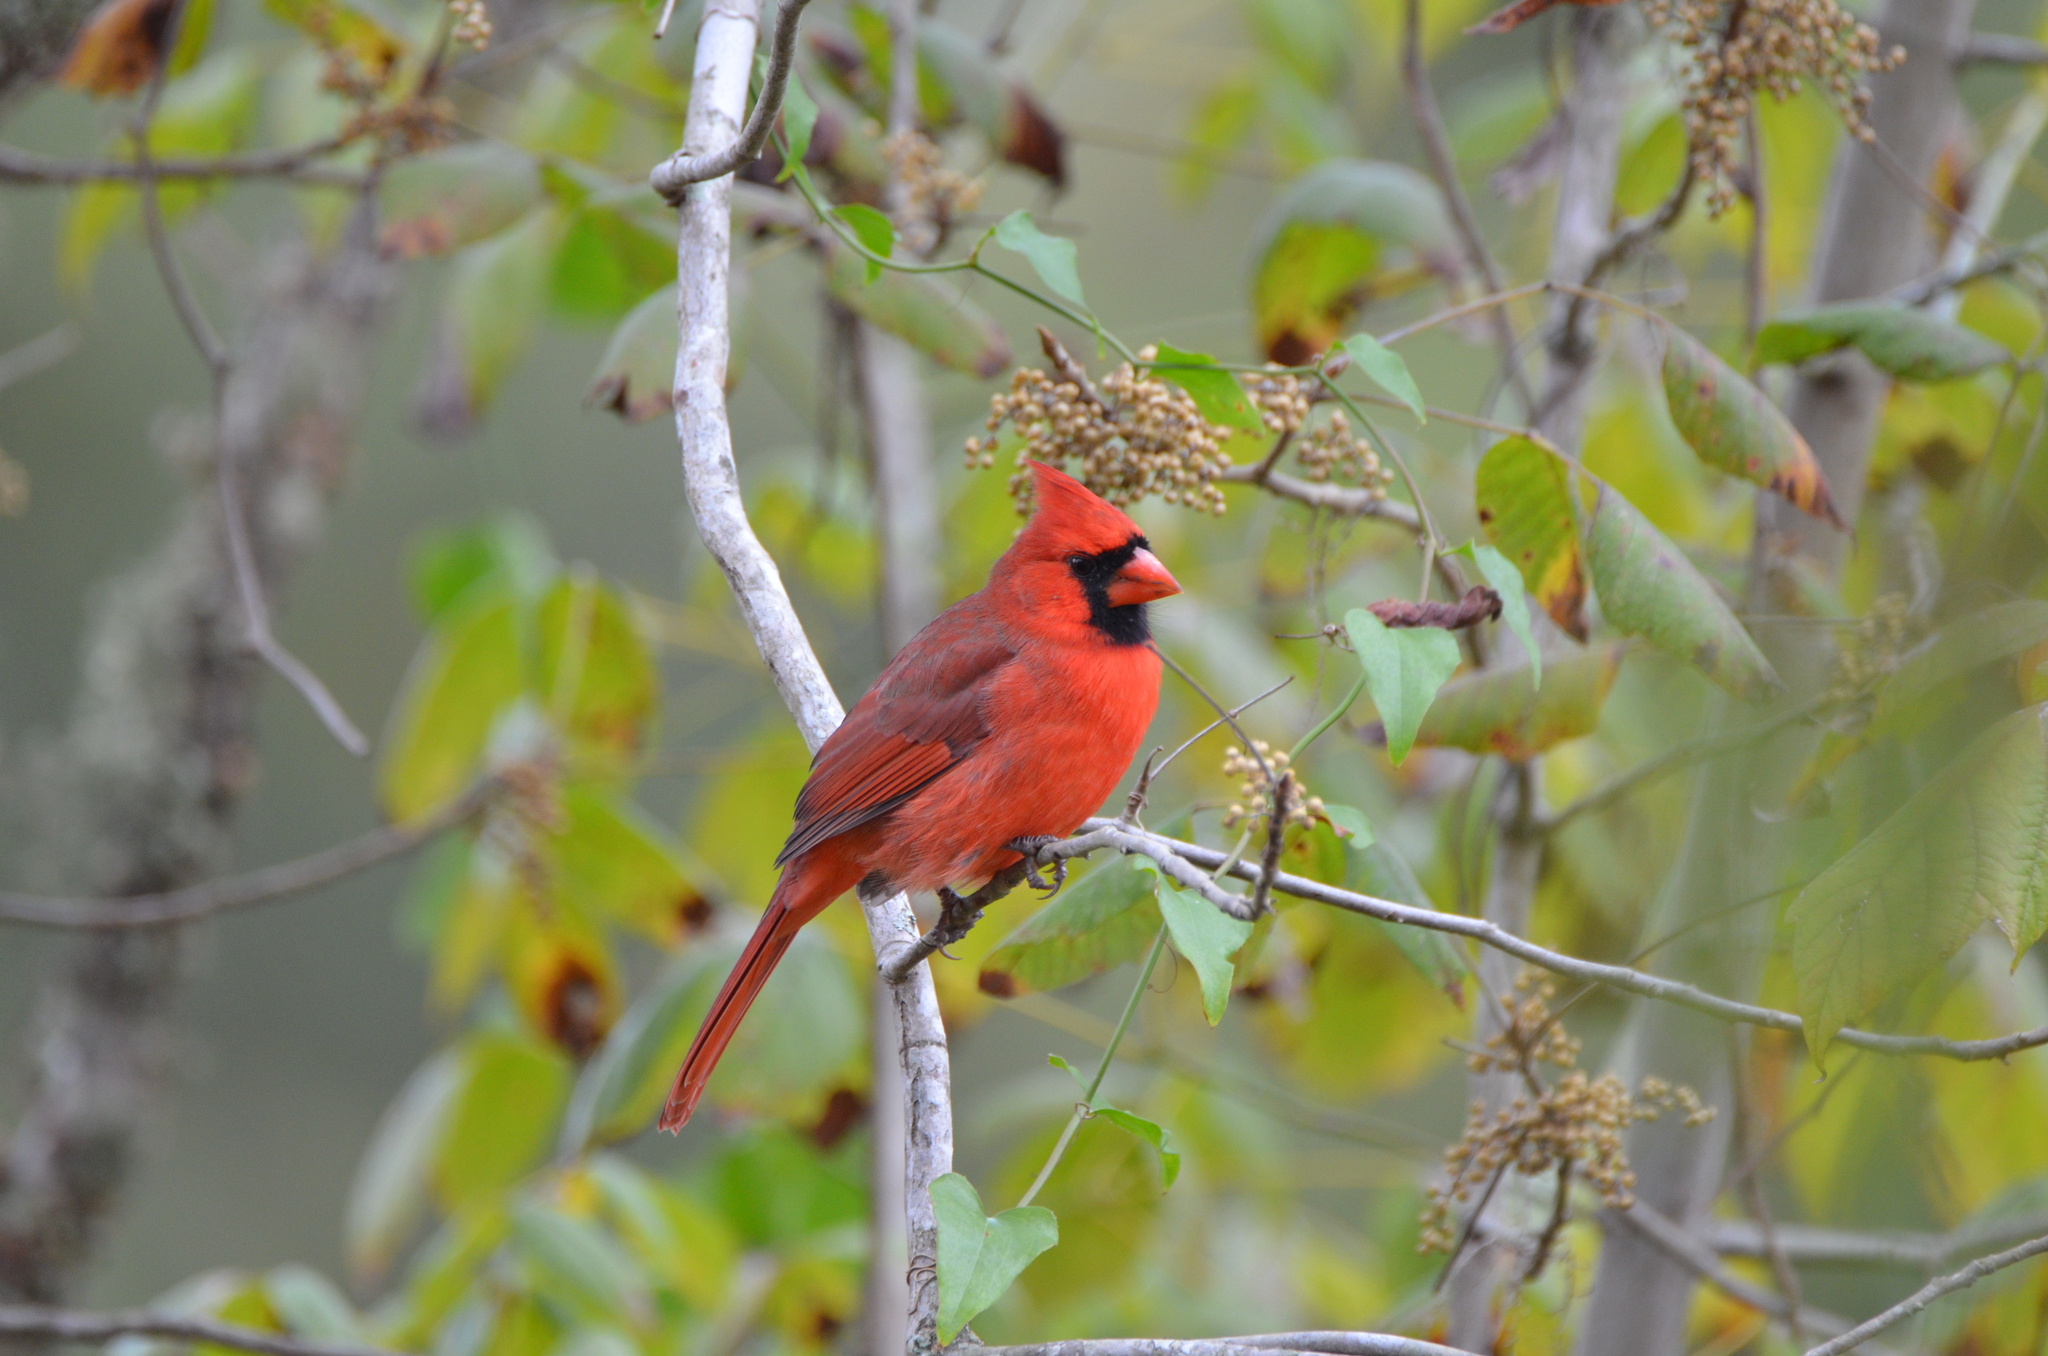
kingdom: Animalia
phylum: Chordata
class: Aves
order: Passeriformes
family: Cardinalidae
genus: Cardinalis
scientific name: Cardinalis cardinalis
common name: Northern cardinal
